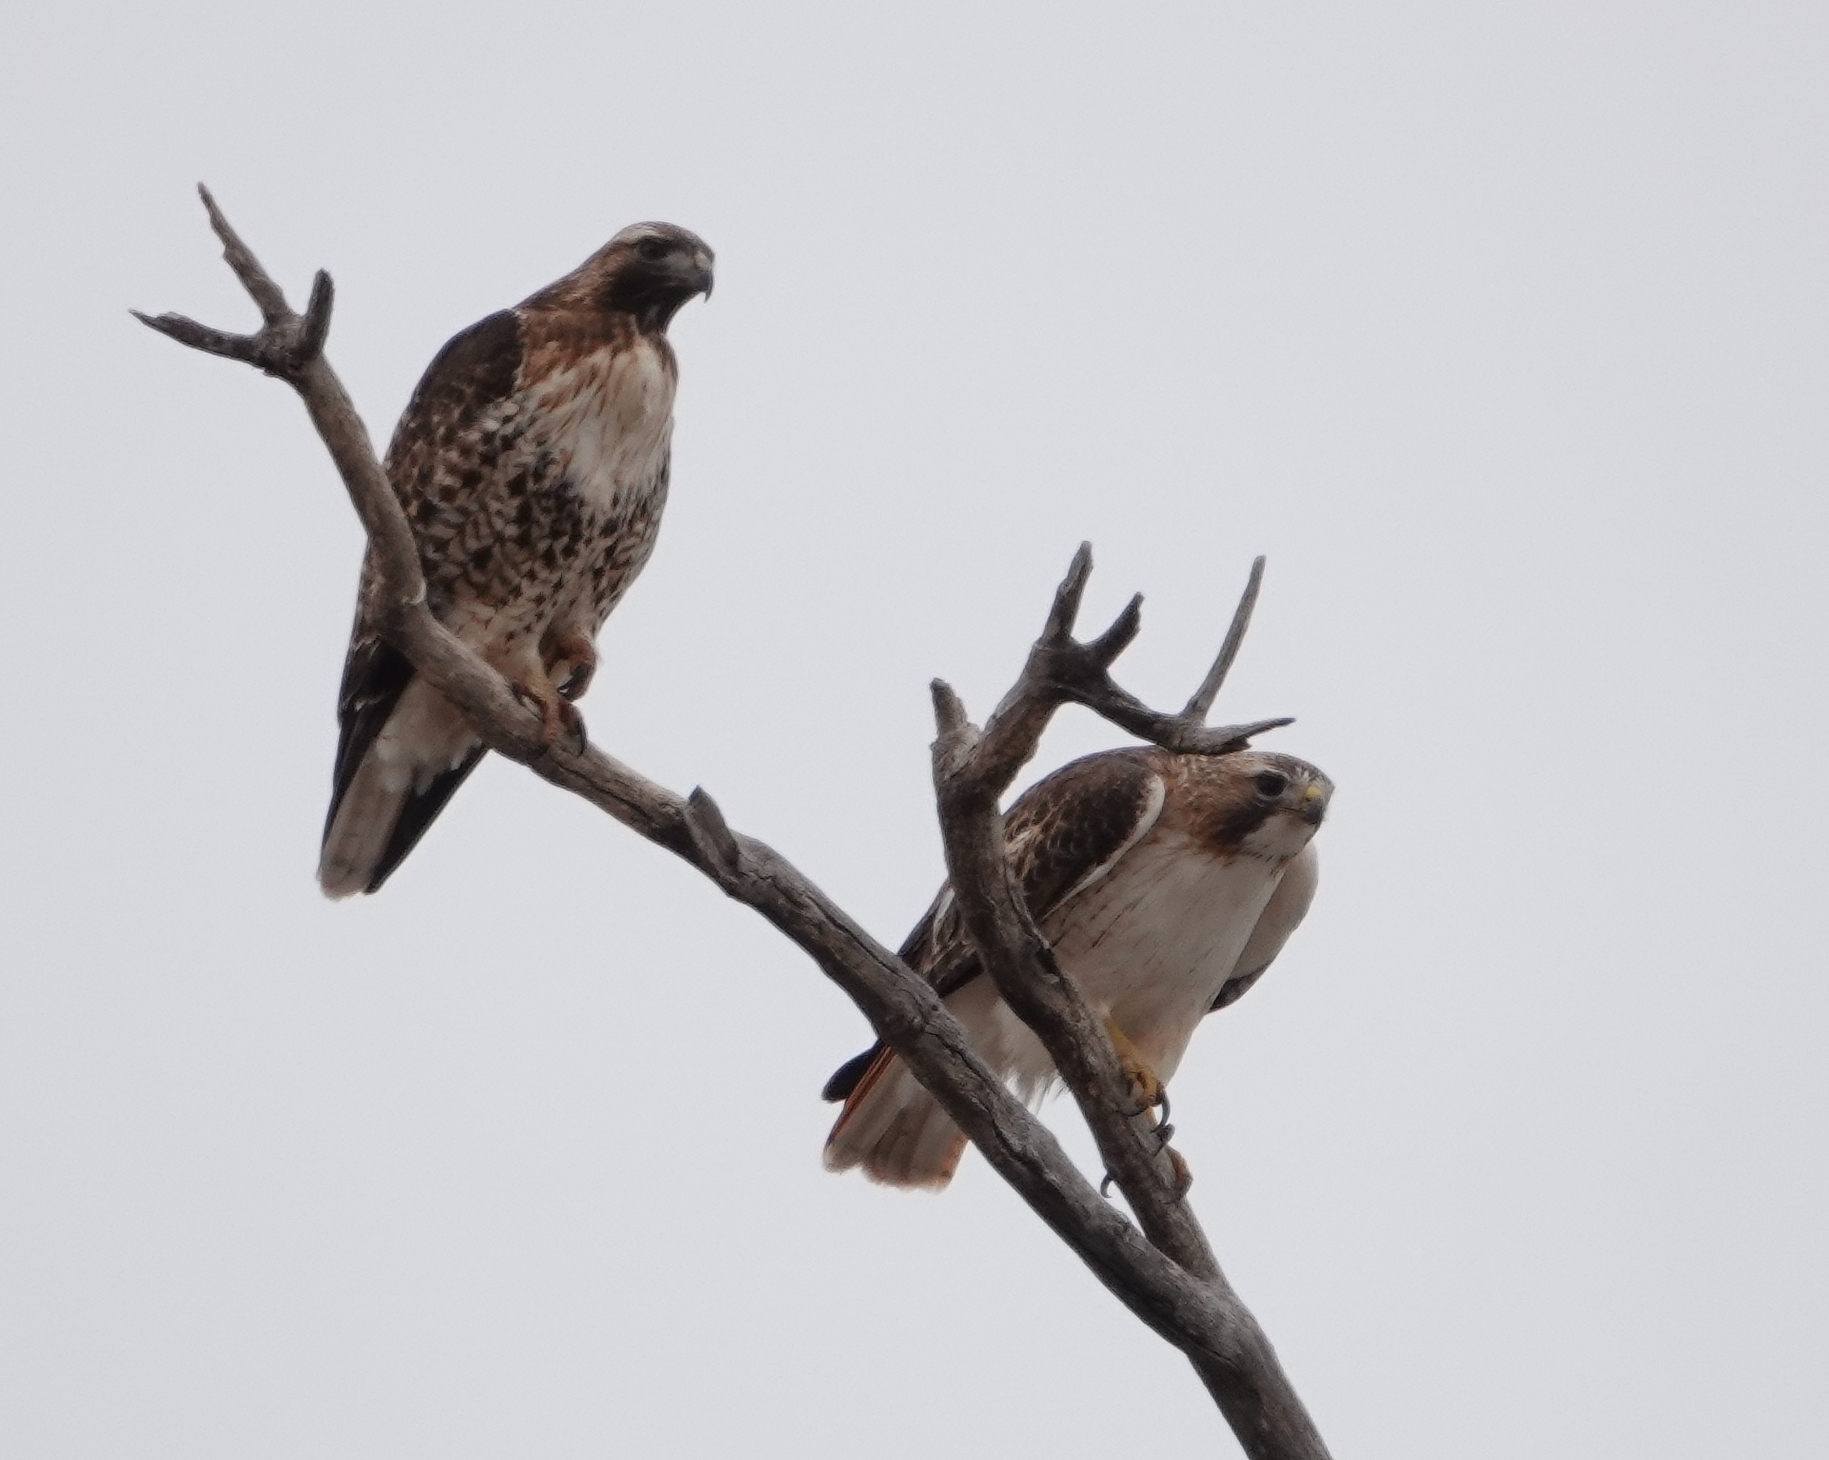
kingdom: Animalia
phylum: Chordata
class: Aves
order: Accipitriformes
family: Accipitridae
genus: Buteo
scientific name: Buteo jamaicensis
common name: Red-tailed hawk
